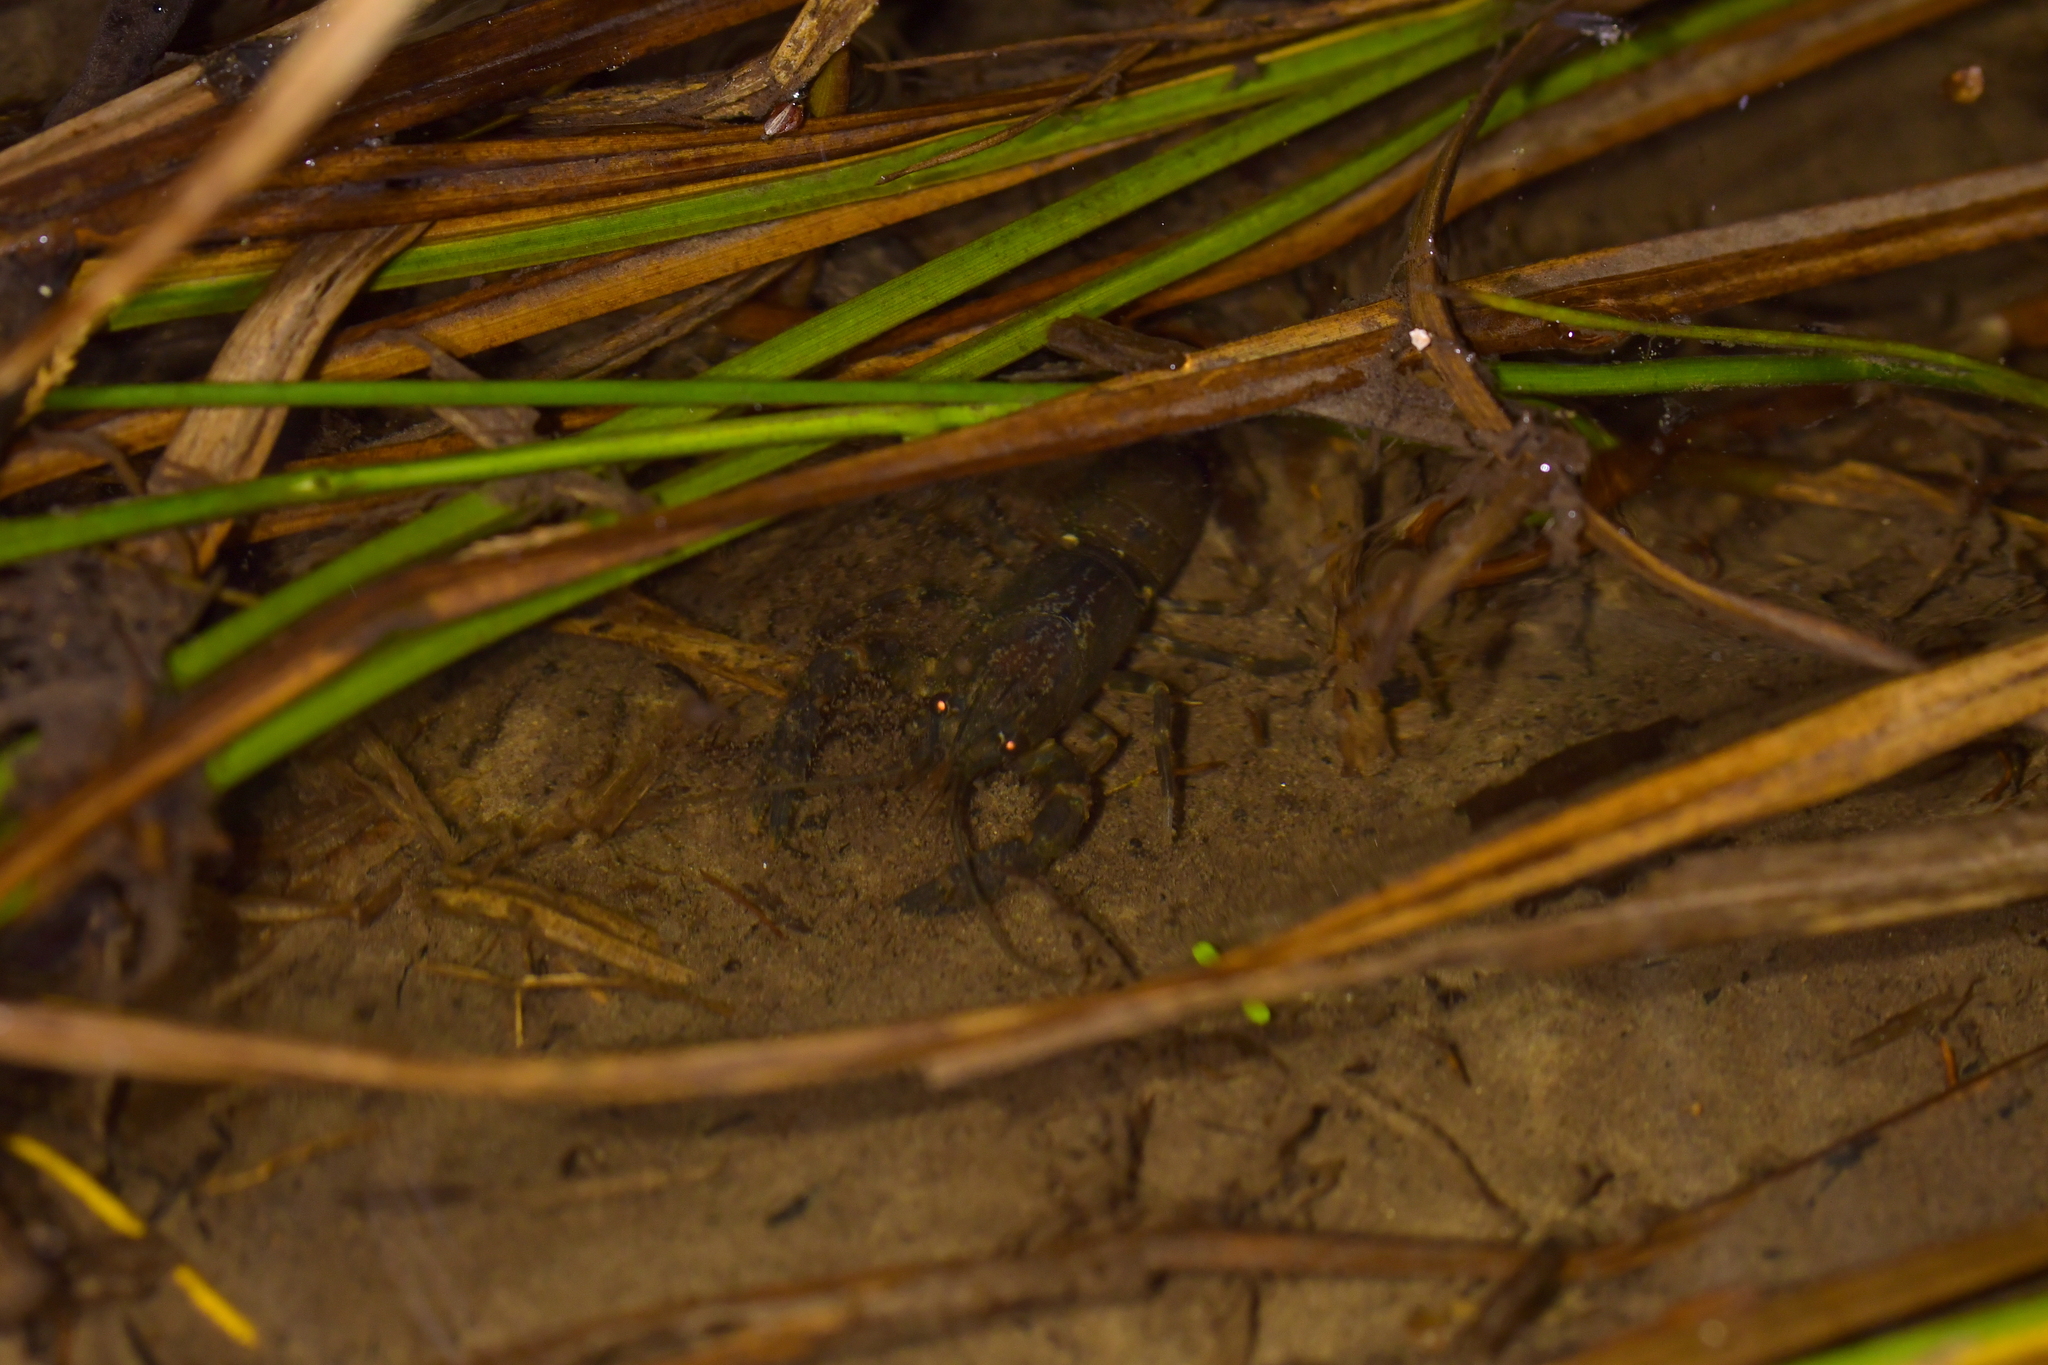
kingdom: Animalia
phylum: Arthropoda
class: Malacostraca
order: Decapoda
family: Parastacidae
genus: Paranephrops
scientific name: Paranephrops planifrons
